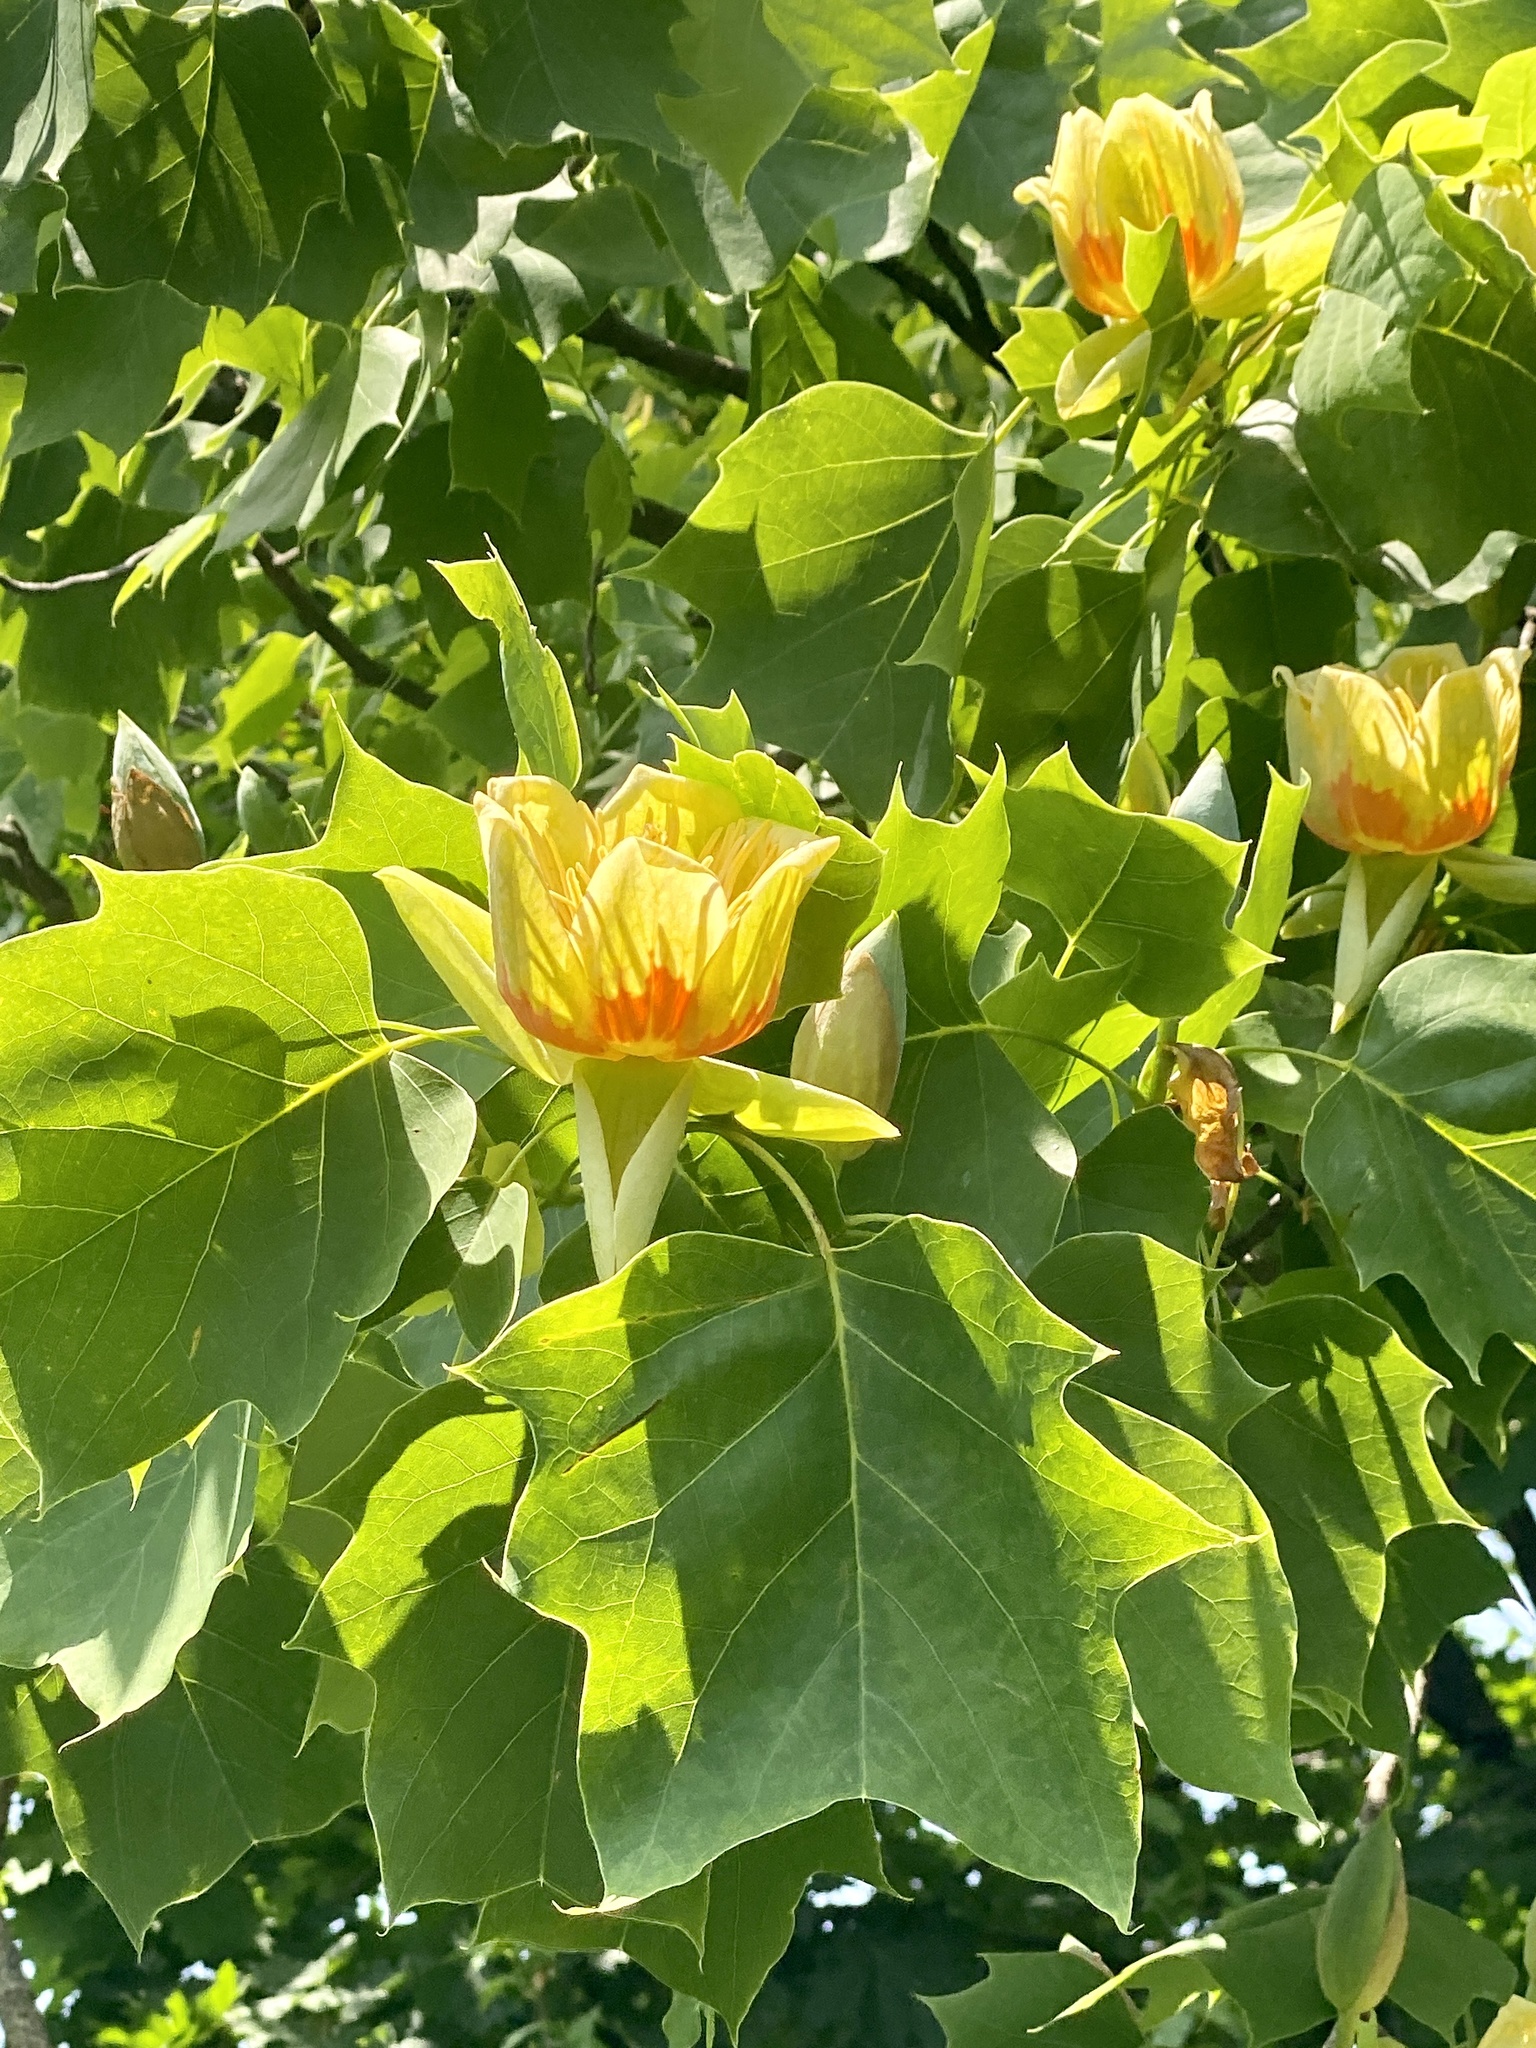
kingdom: Plantae
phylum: Tracheophyta
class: Magnoliopsida
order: Magnoliales
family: Magnoliaceae
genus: Liriodendron
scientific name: Liriodendron tulipifera
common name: Tulip tree
